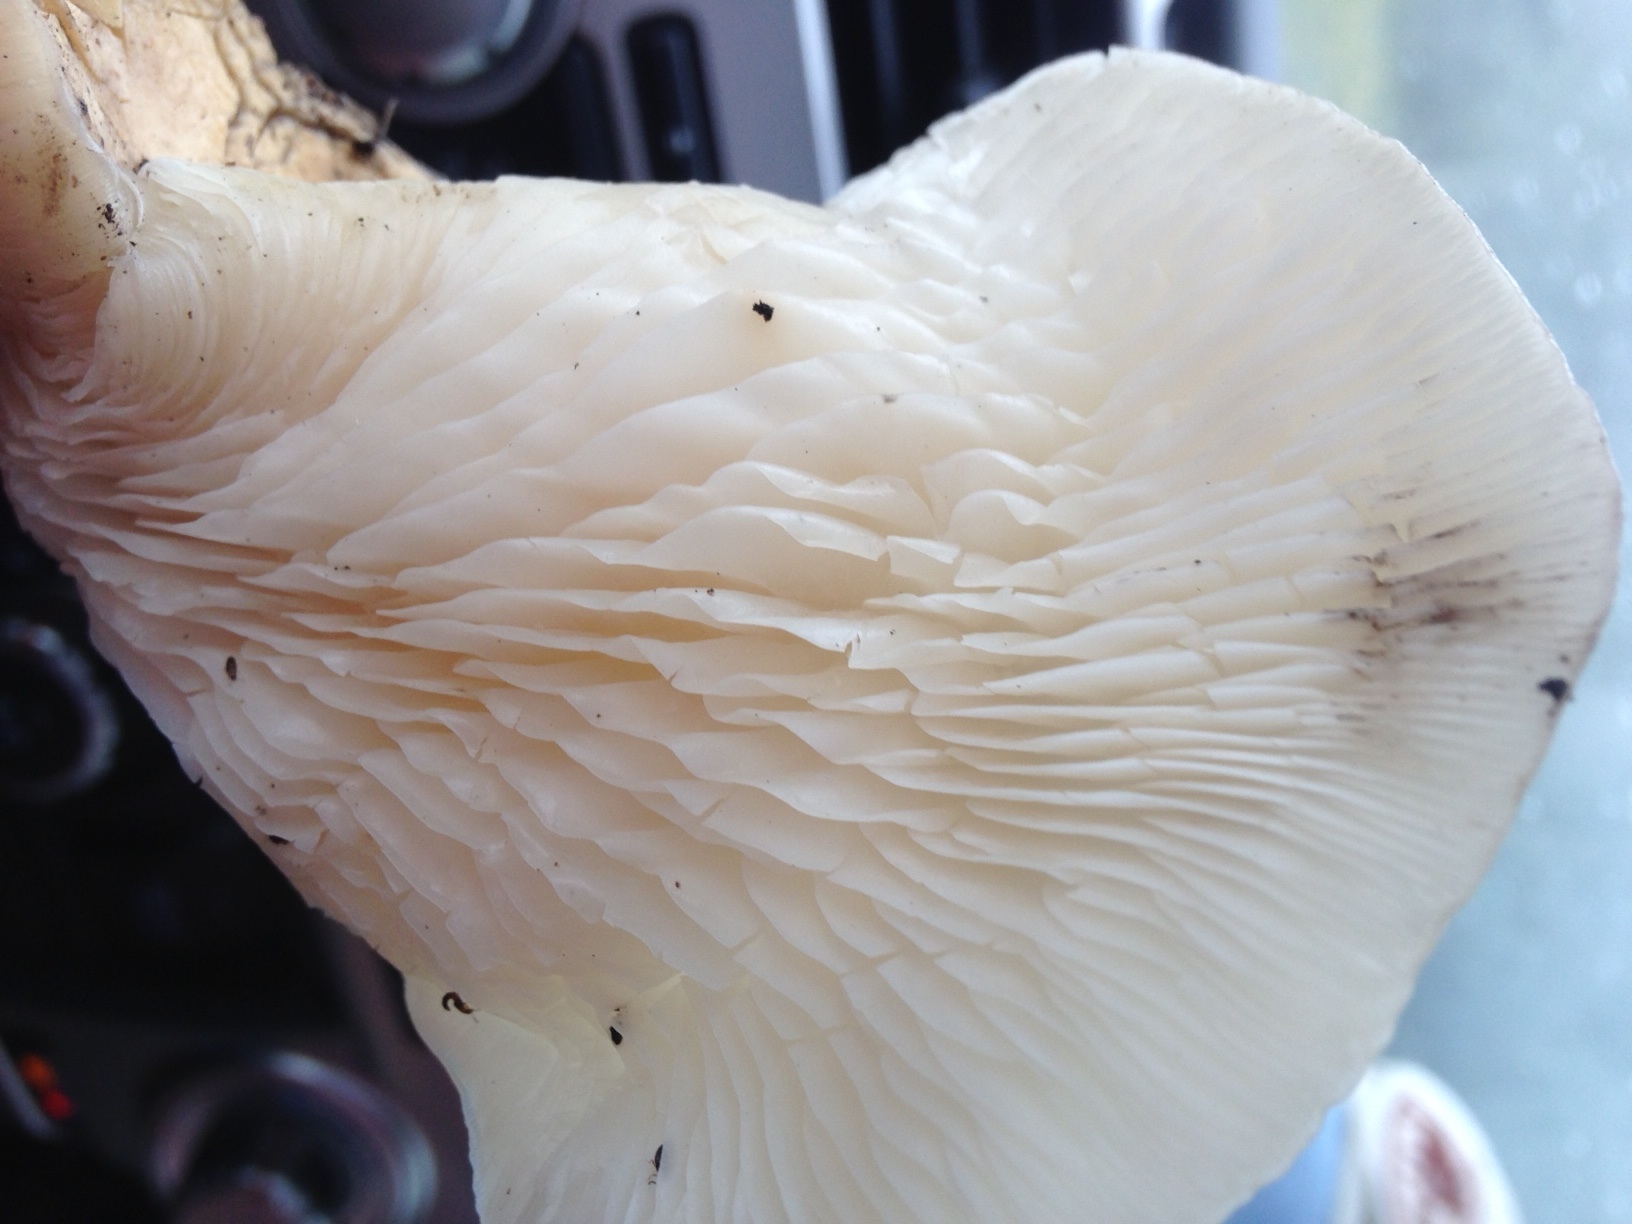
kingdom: Fungi
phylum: Basidiomycota
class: Agaricomycetes
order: Agaricales
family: Pleurotaceae
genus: Pleurotus
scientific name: Pleurotus populinus
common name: Aspen oyster mushroom
